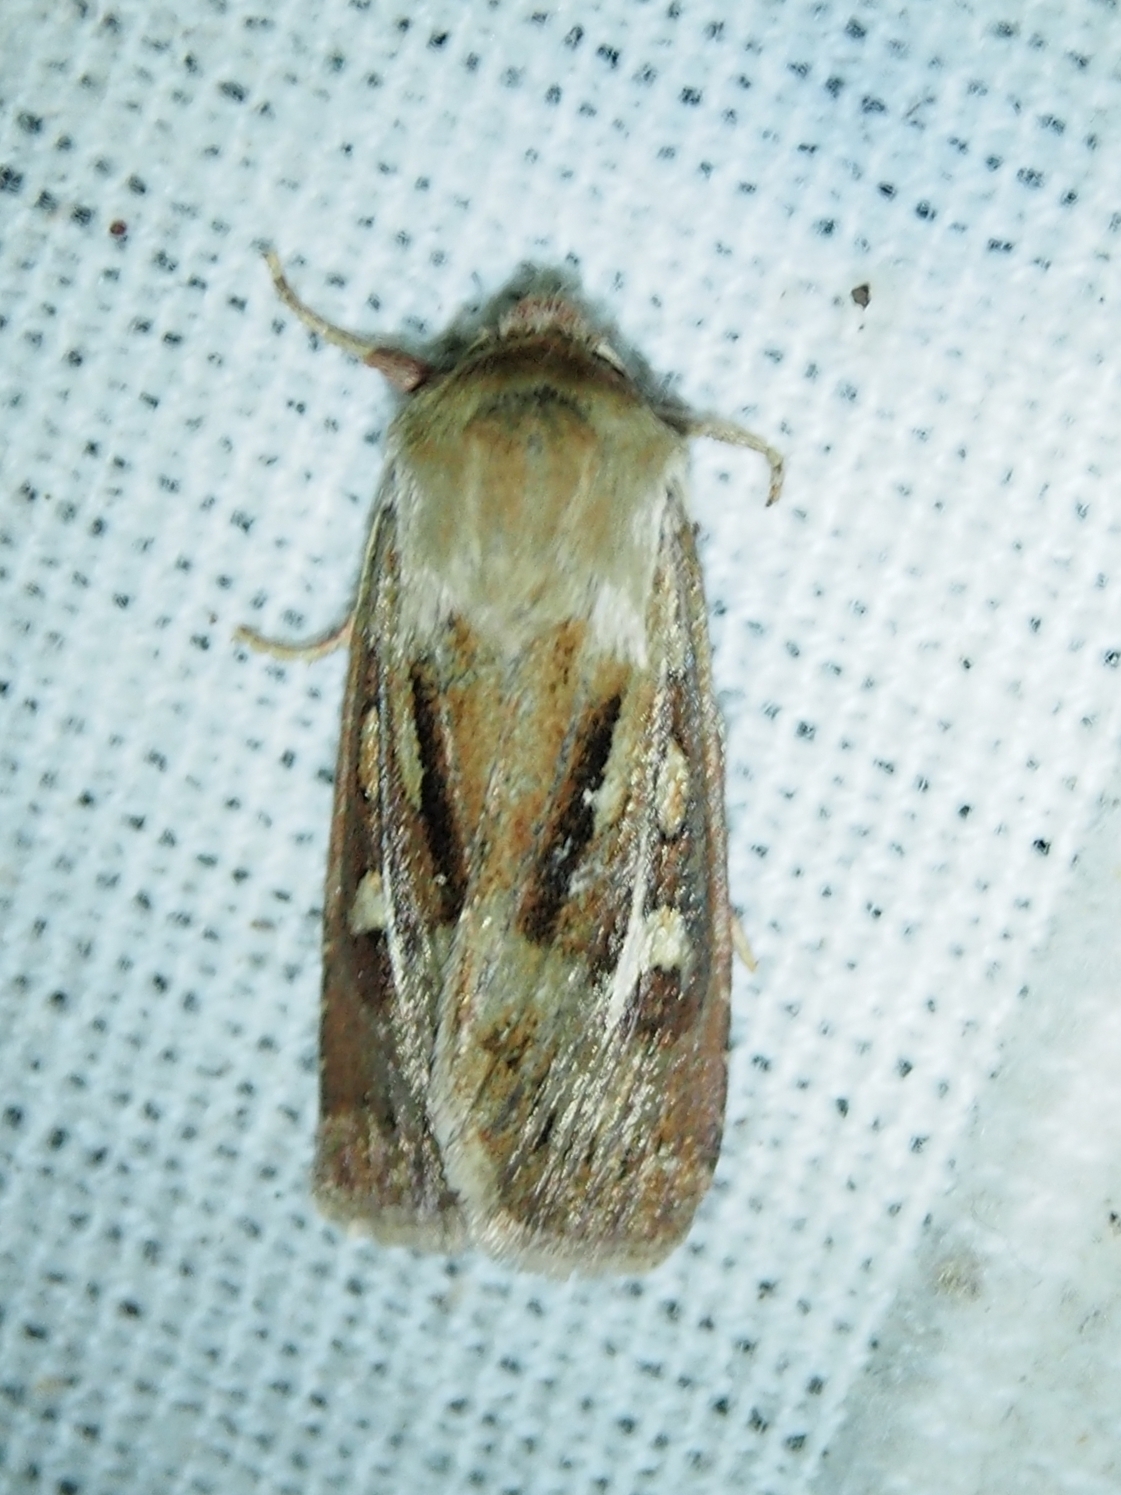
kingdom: Animalia
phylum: Arthropoda
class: Insecta
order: Lepidoptera
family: Noctuidae
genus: Cerapteryx
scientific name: Cerapteryx graminis
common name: Antler moth
